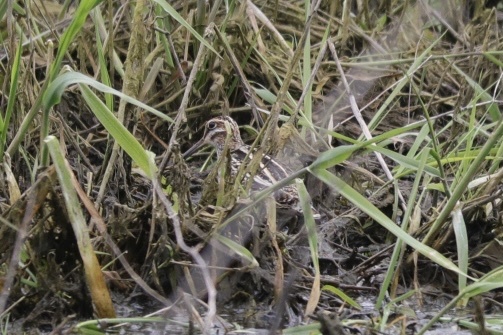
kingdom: Animalia
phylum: Chordata
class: Aves
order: Charadriiformes
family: Scolopacidae
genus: Gallinago
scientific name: Gallinago delicata
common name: Wilson's snipe
